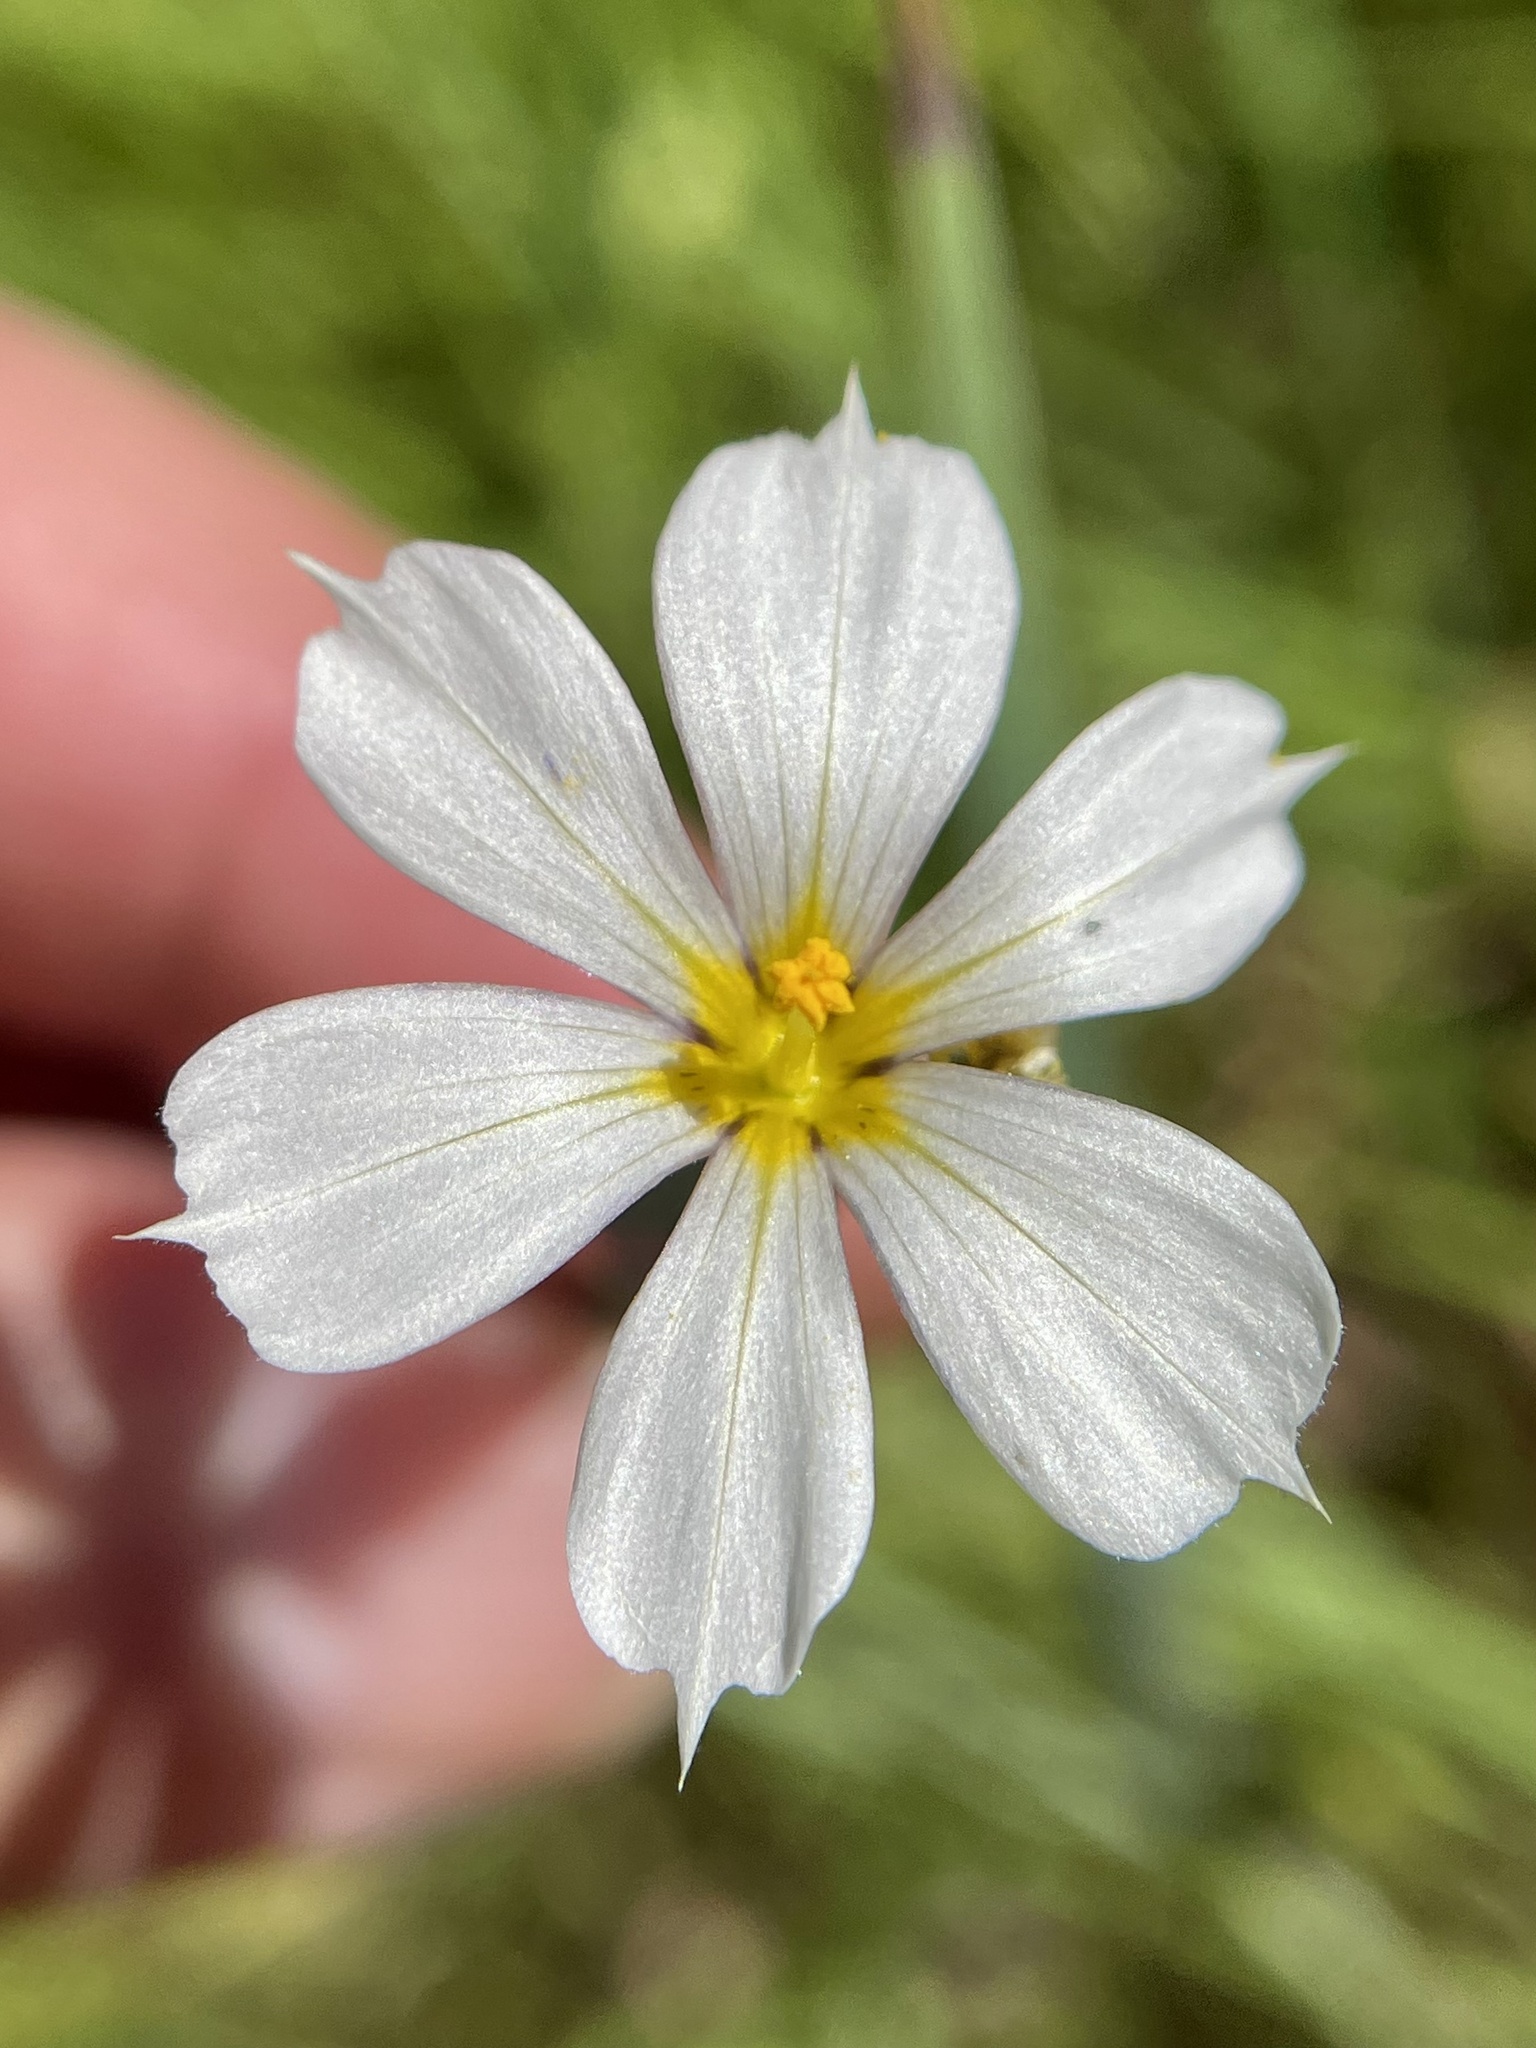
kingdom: Plantae
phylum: Tracheophyta
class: Liliopsida
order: Asparagales
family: Iridaceae
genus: Sisyrinchium
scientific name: Sisyrinchium bellum
